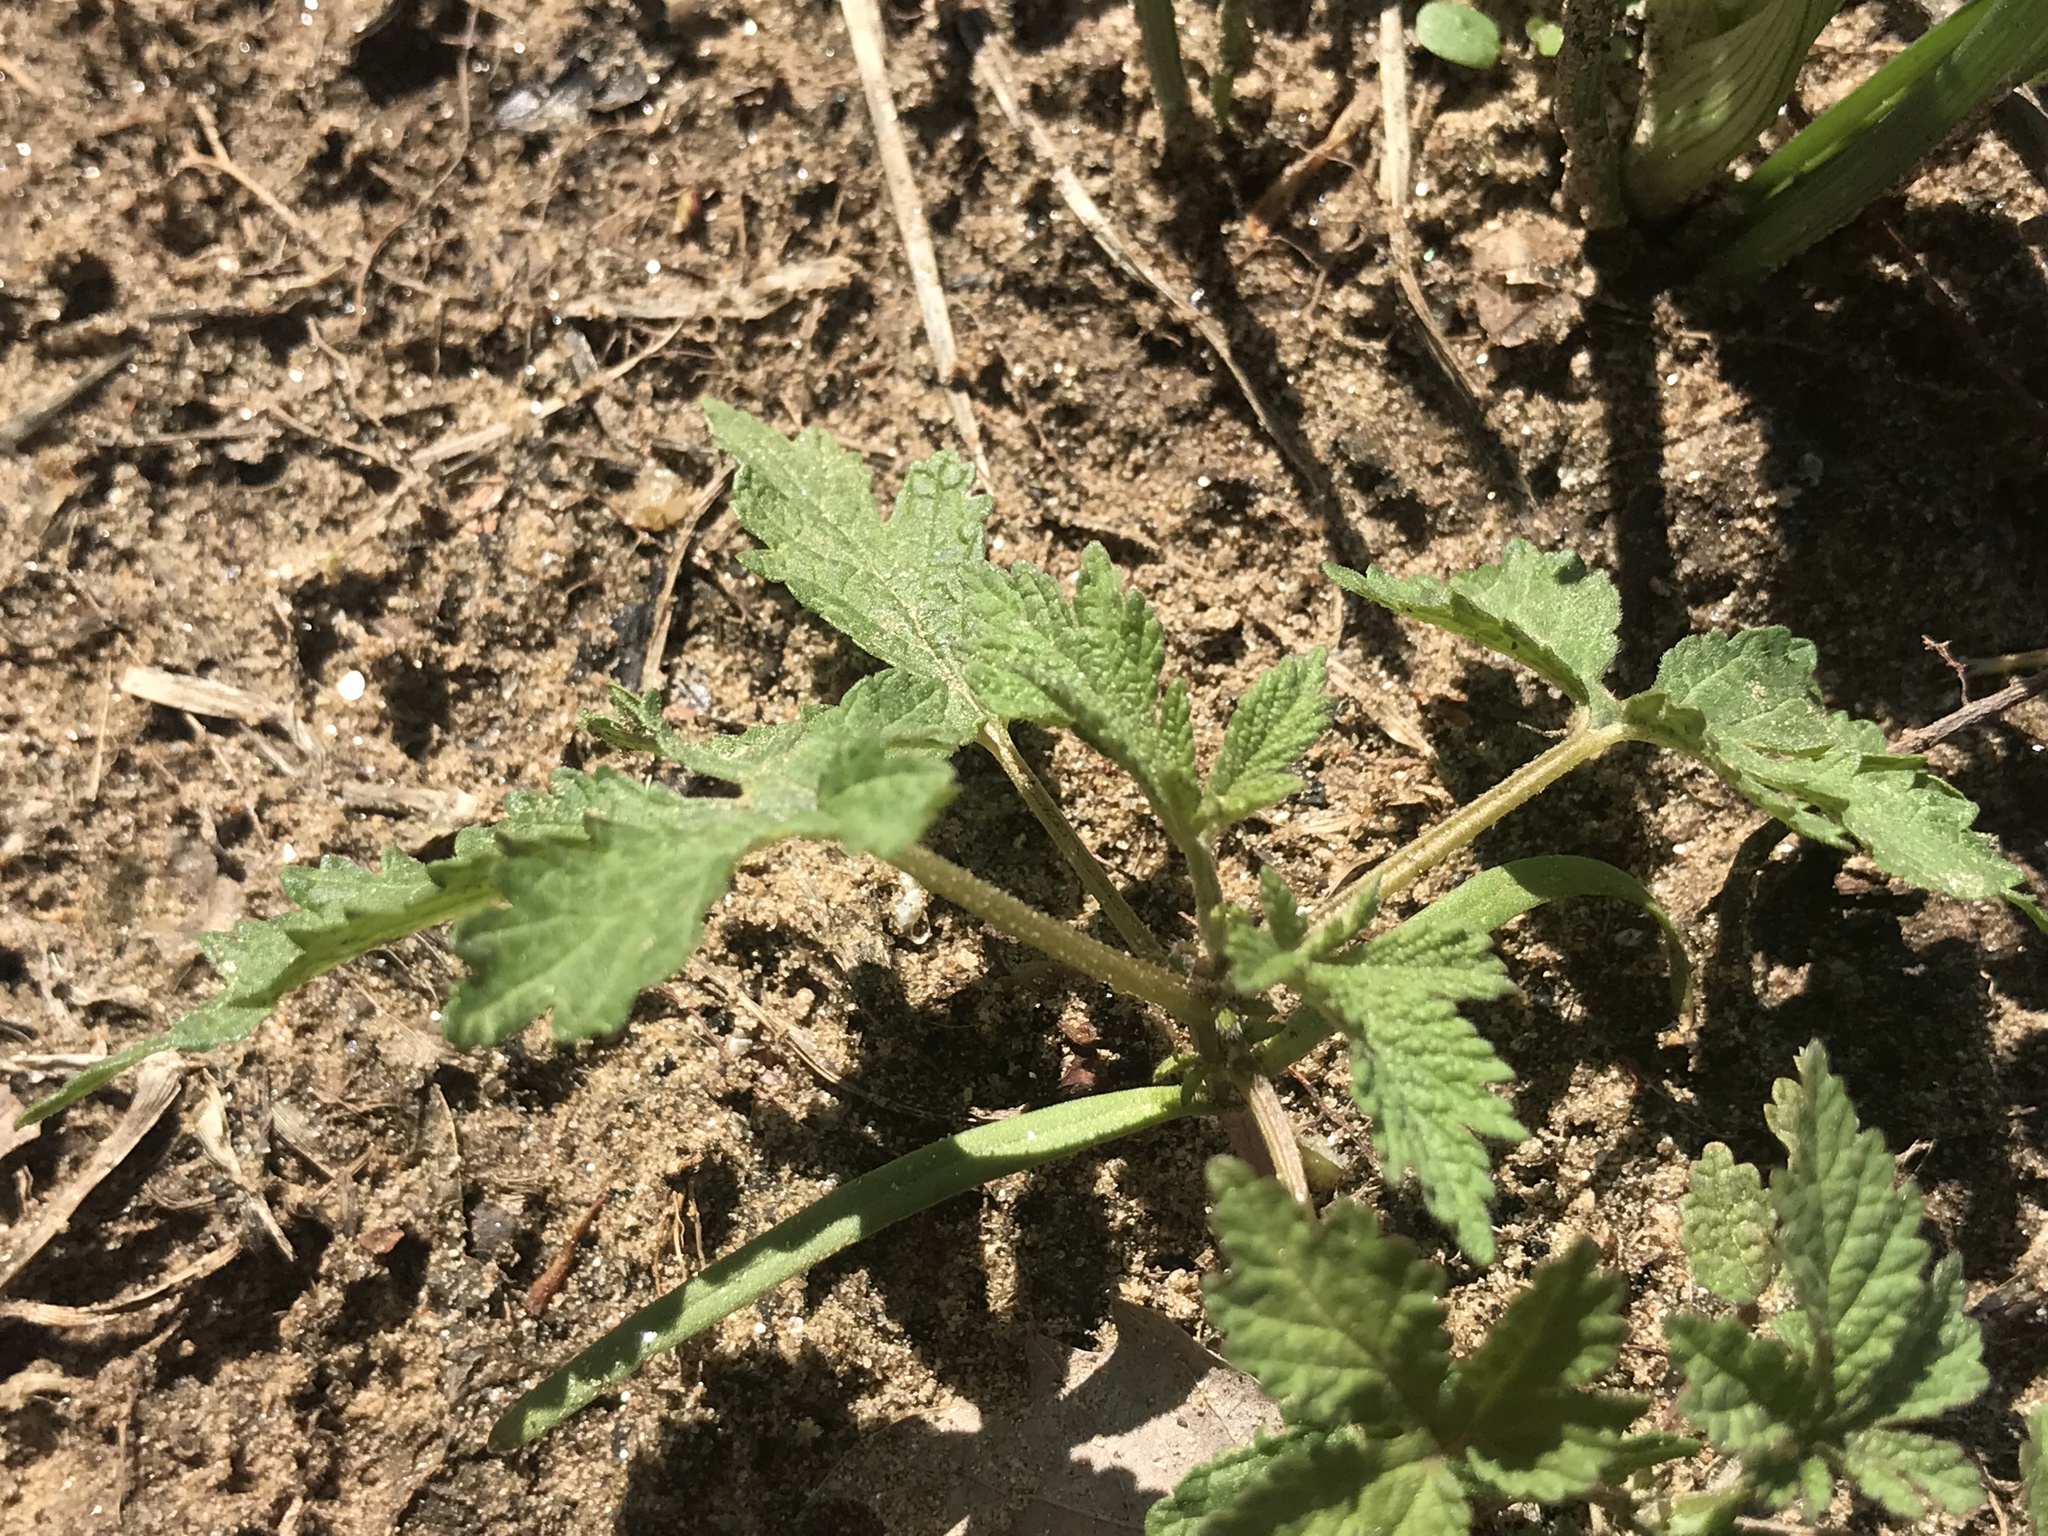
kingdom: Plantae
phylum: Tracheophyta
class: Magnoliopsida
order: Rosales
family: Cannabaceae
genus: Humulus
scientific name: Humulus scandens
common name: Japanese hop
